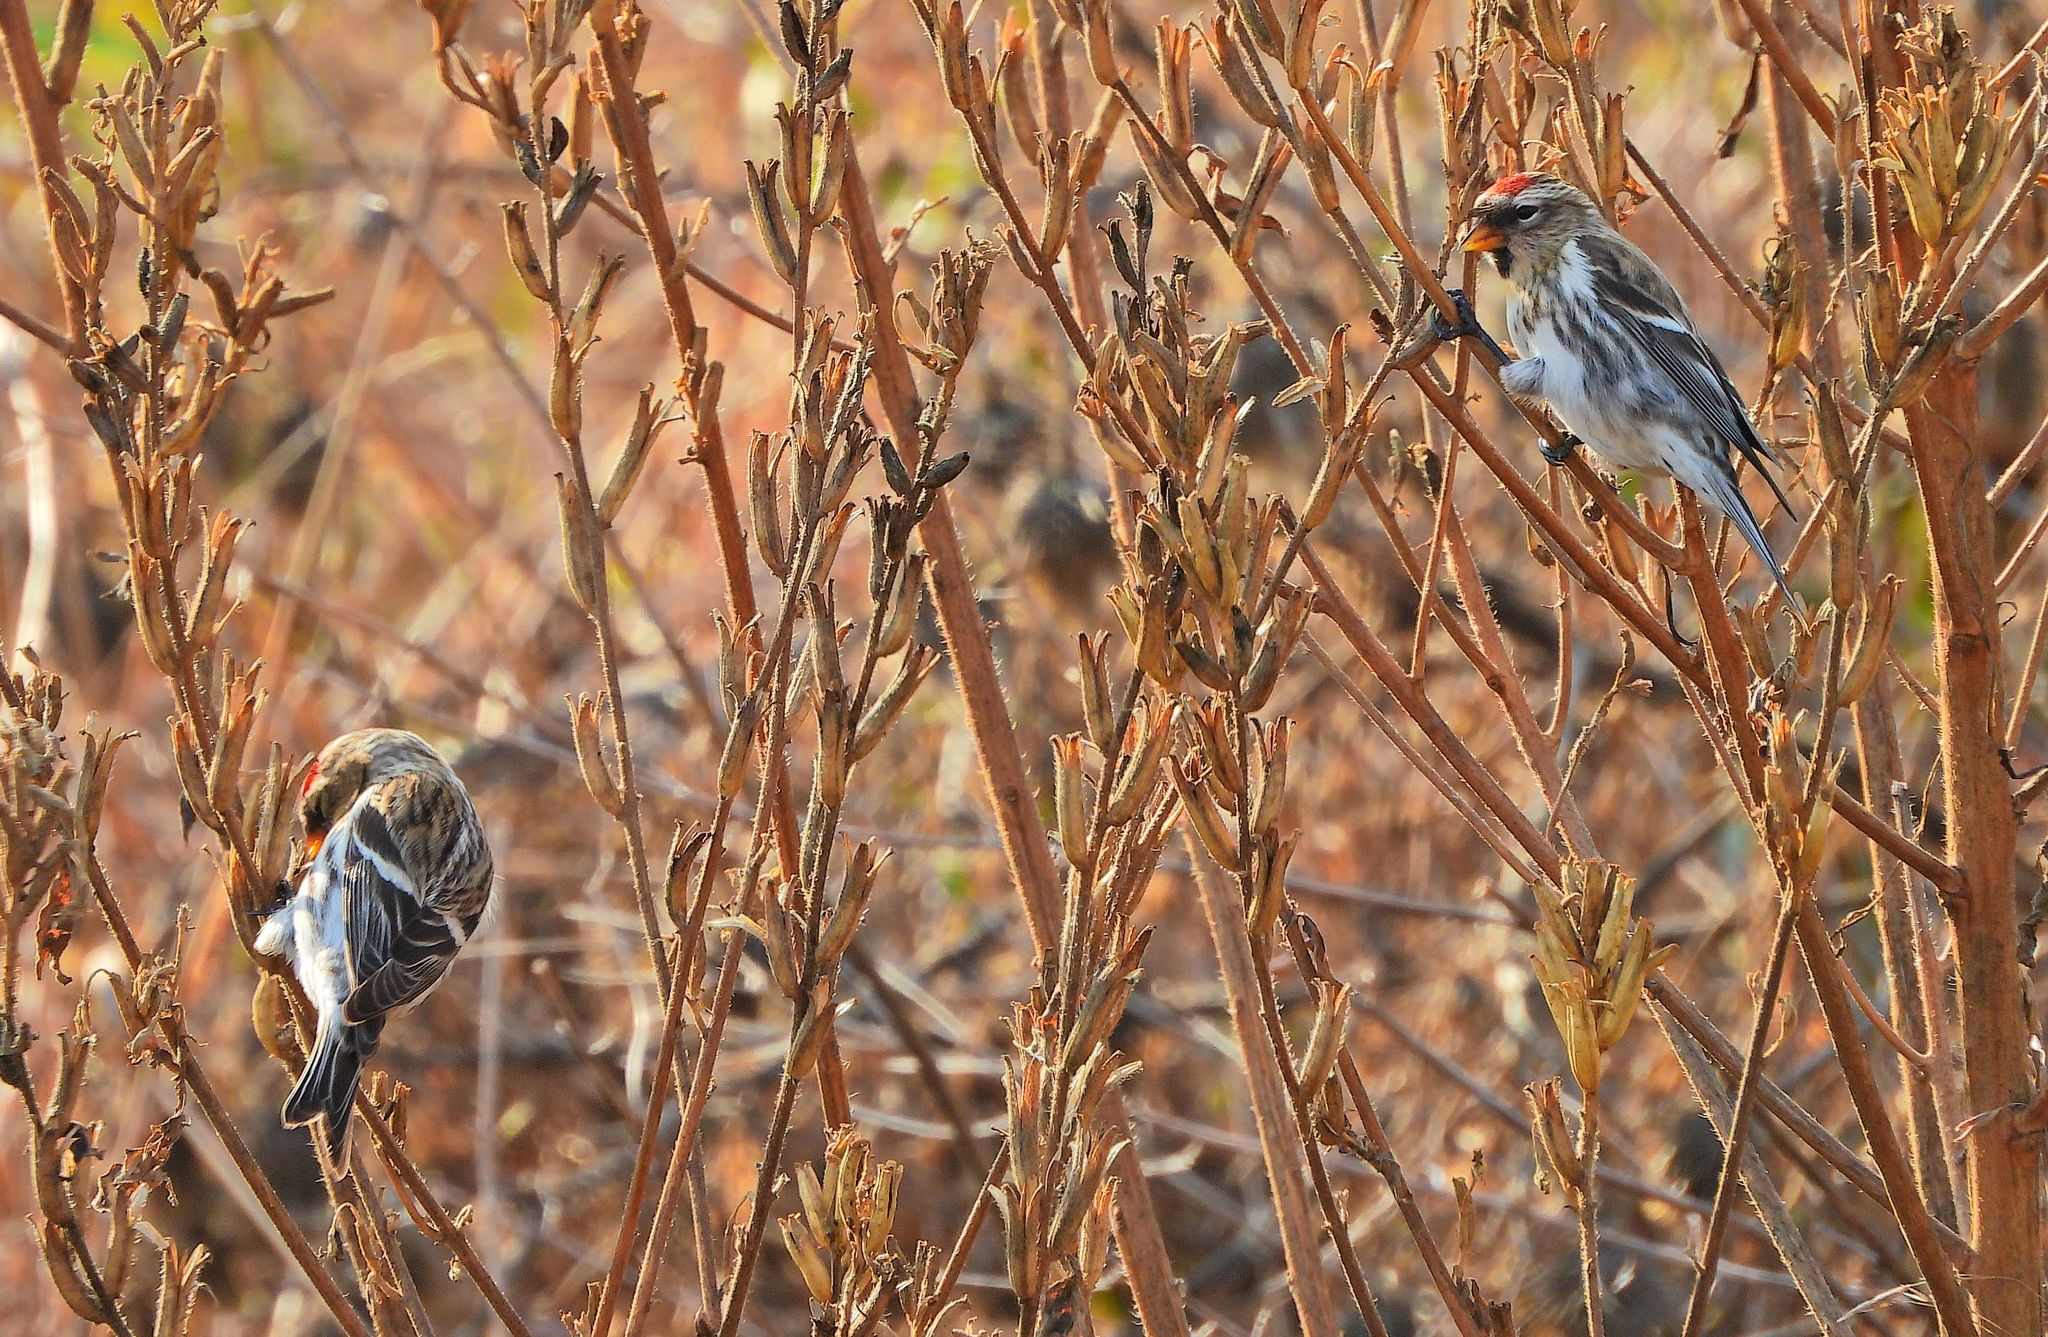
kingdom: Animalia
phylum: Chordata
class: Aves
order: Passeriformes
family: Fringillidae
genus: Acanthis
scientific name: Acanthis flammea
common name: Common redpoll
